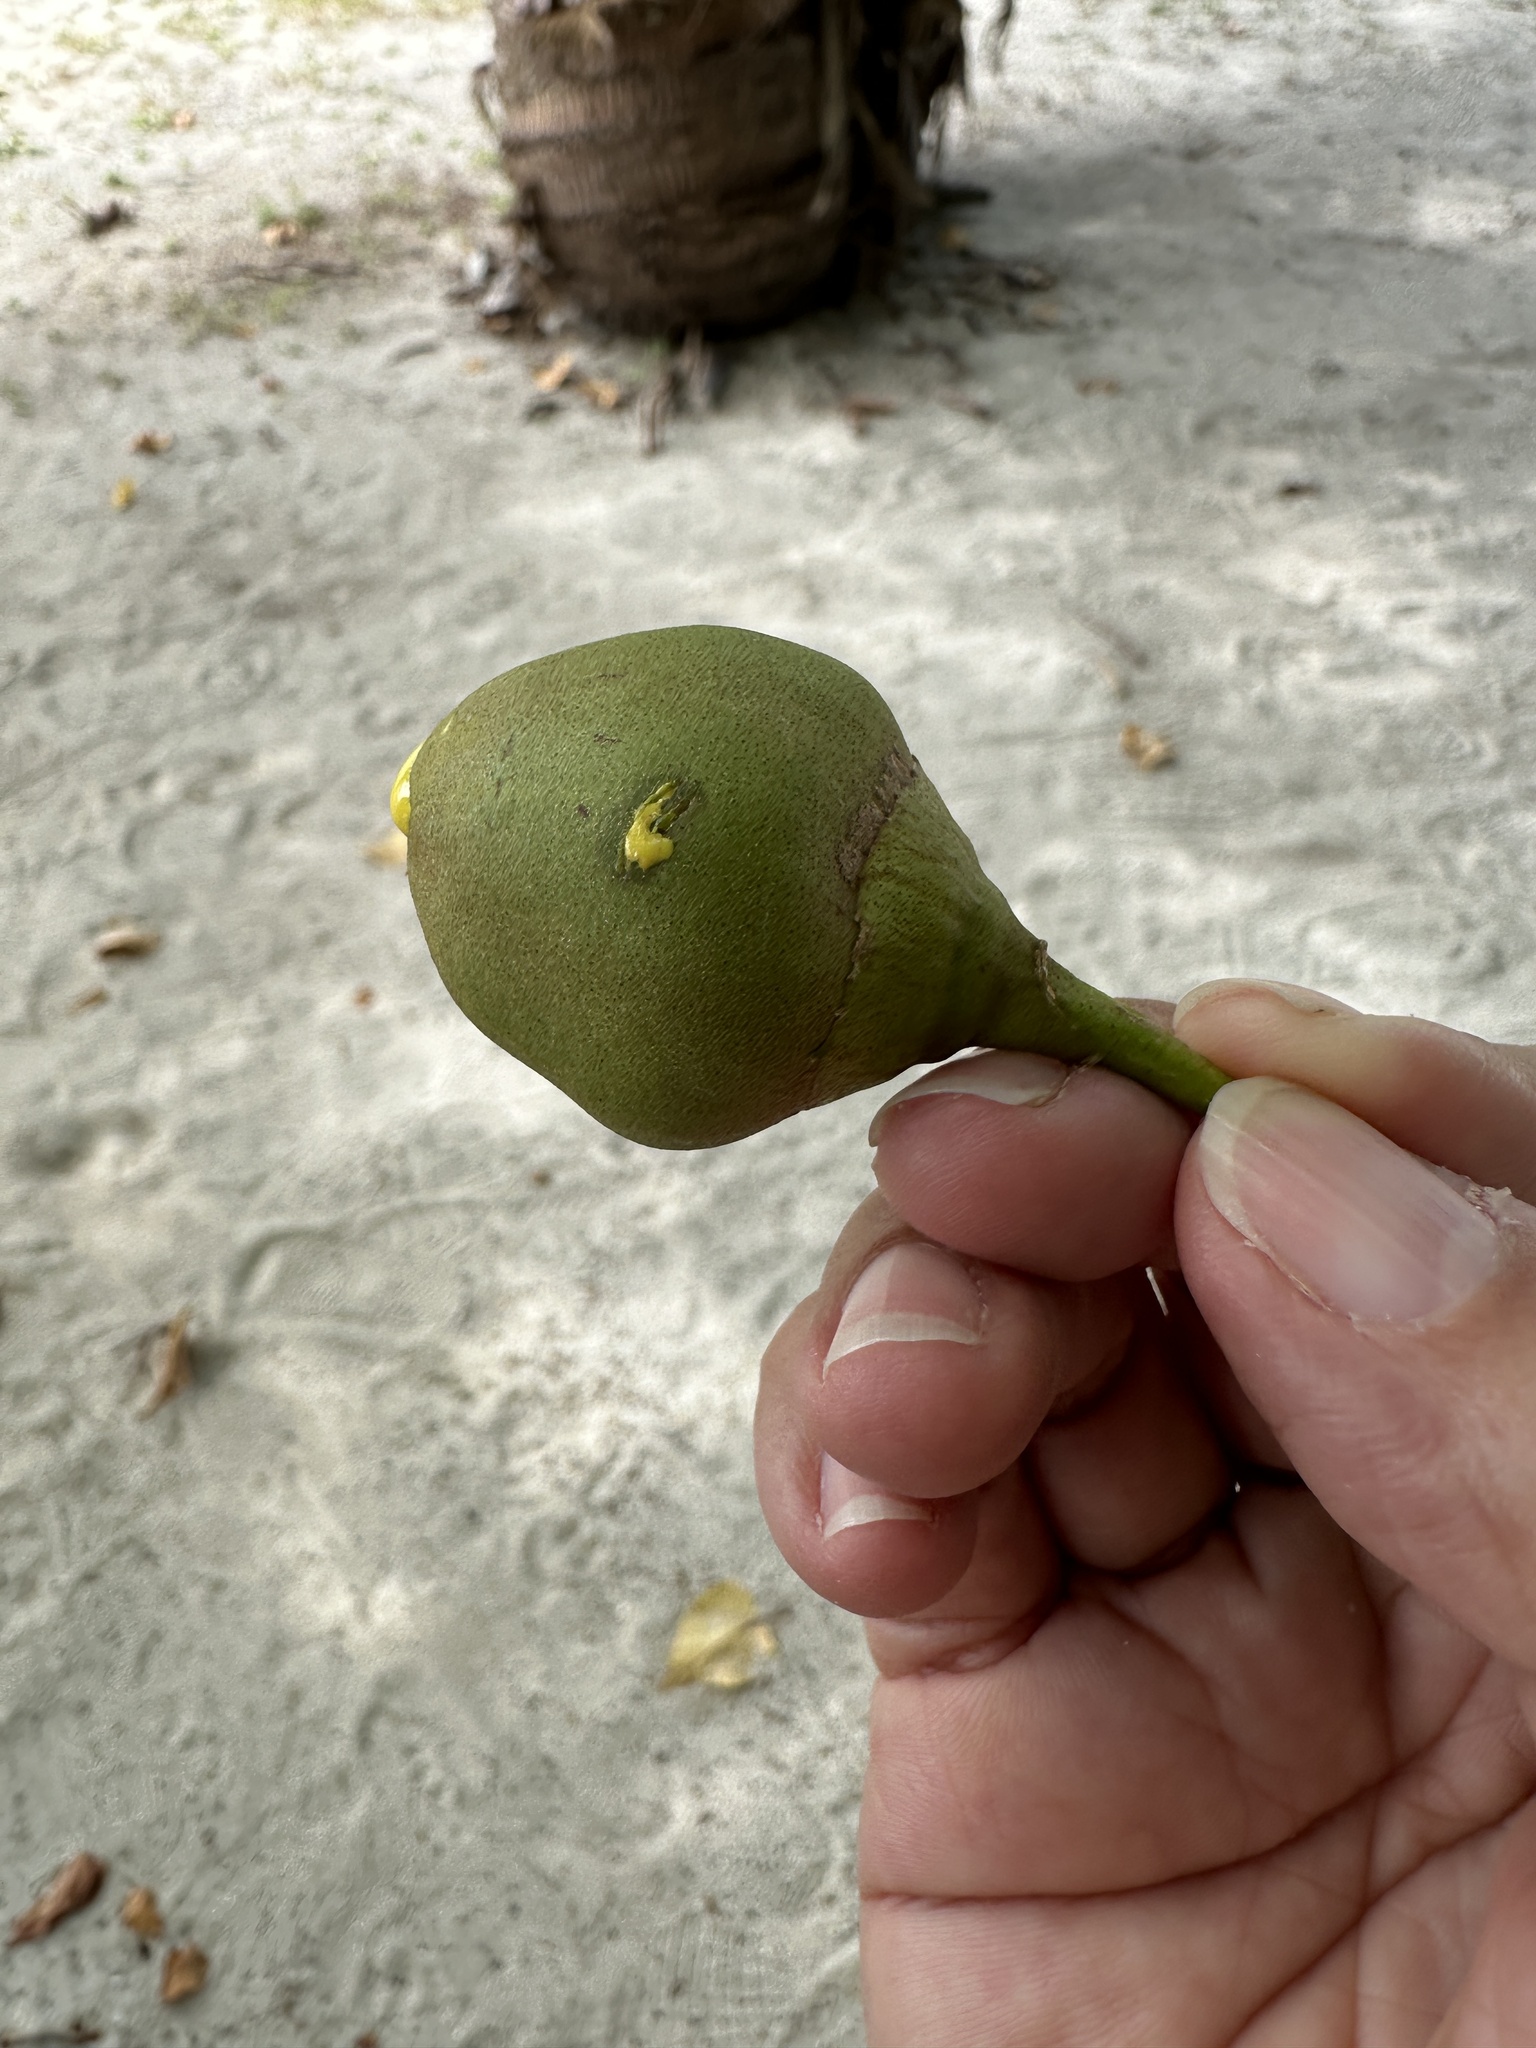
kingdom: Plantae
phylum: Tracheophyta
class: Magnoliopsida
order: Malvales
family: Malvaceae
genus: Thespesia
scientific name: Thespesia populnea
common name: Seaside mahoe
